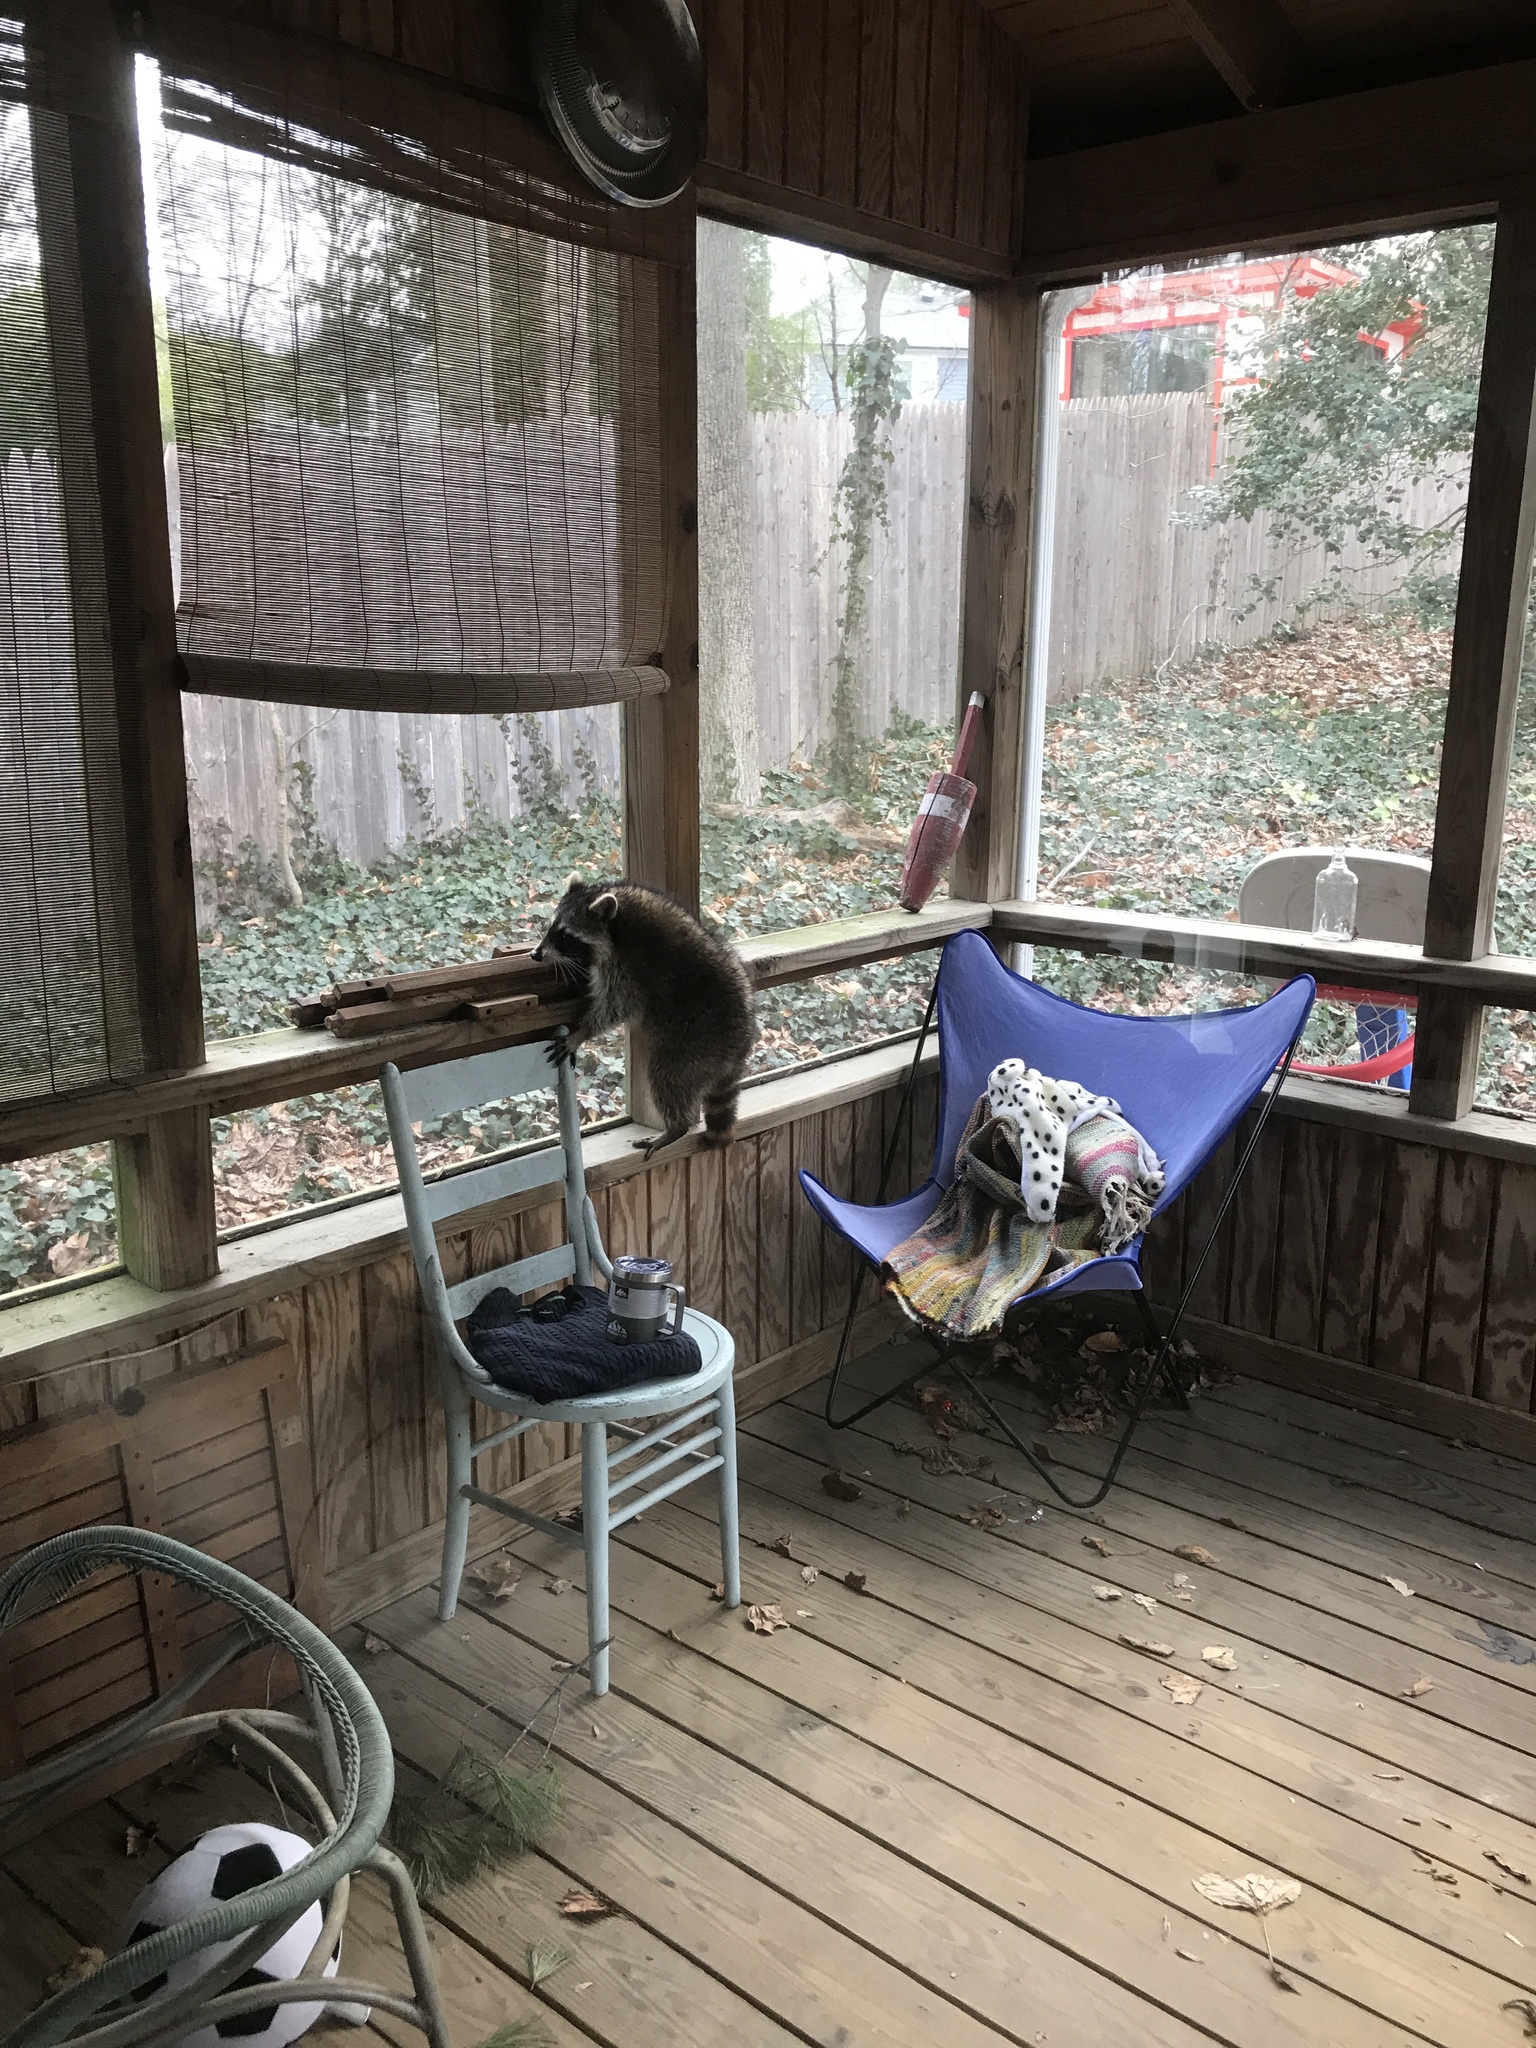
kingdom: Animalia
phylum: Chordata
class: Mammalia
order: Carnivora
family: Procyonidae
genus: Procyon
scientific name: Procyon lotor
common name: Raccoon
